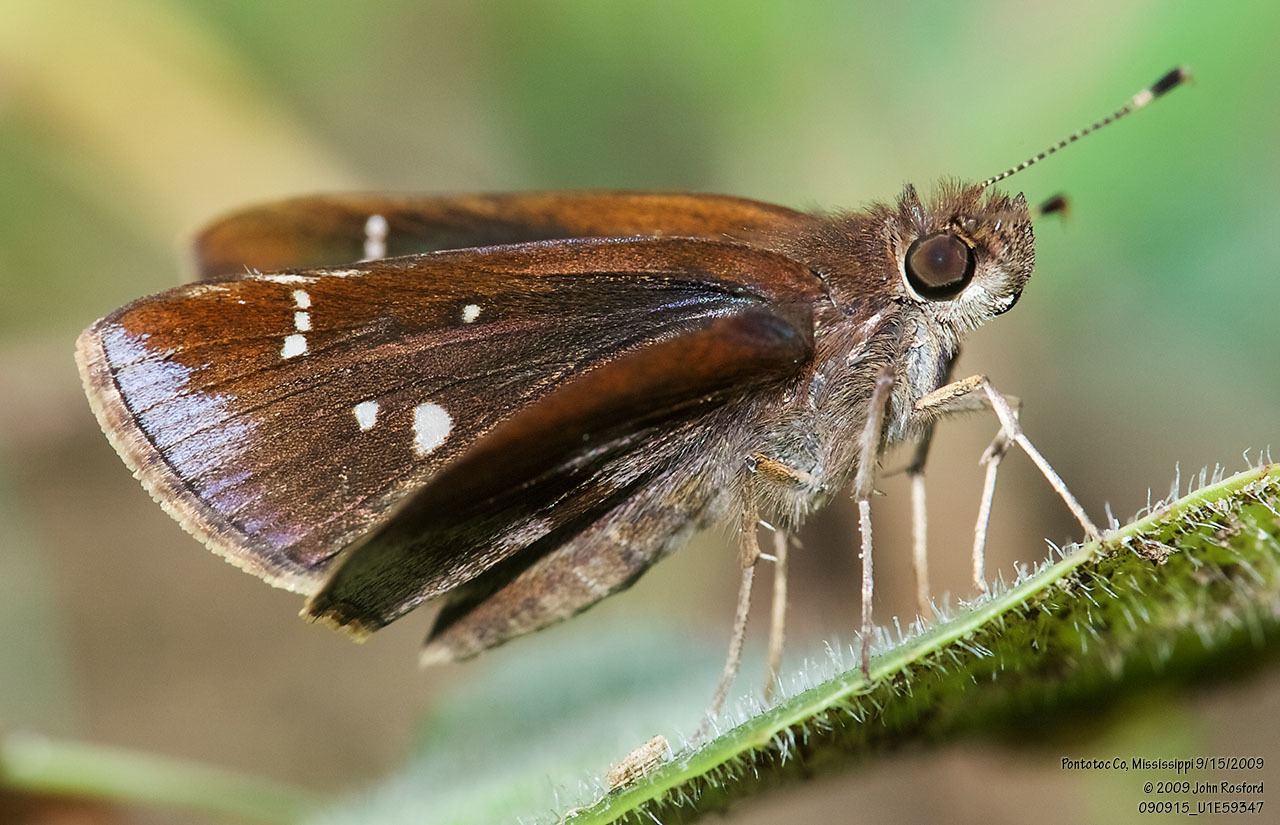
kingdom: Animalia
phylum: Arthropoda
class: Insecta
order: Lepidoptera
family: Hesperiidae
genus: Lerema
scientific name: Lerema accius
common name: Clouded skipper
